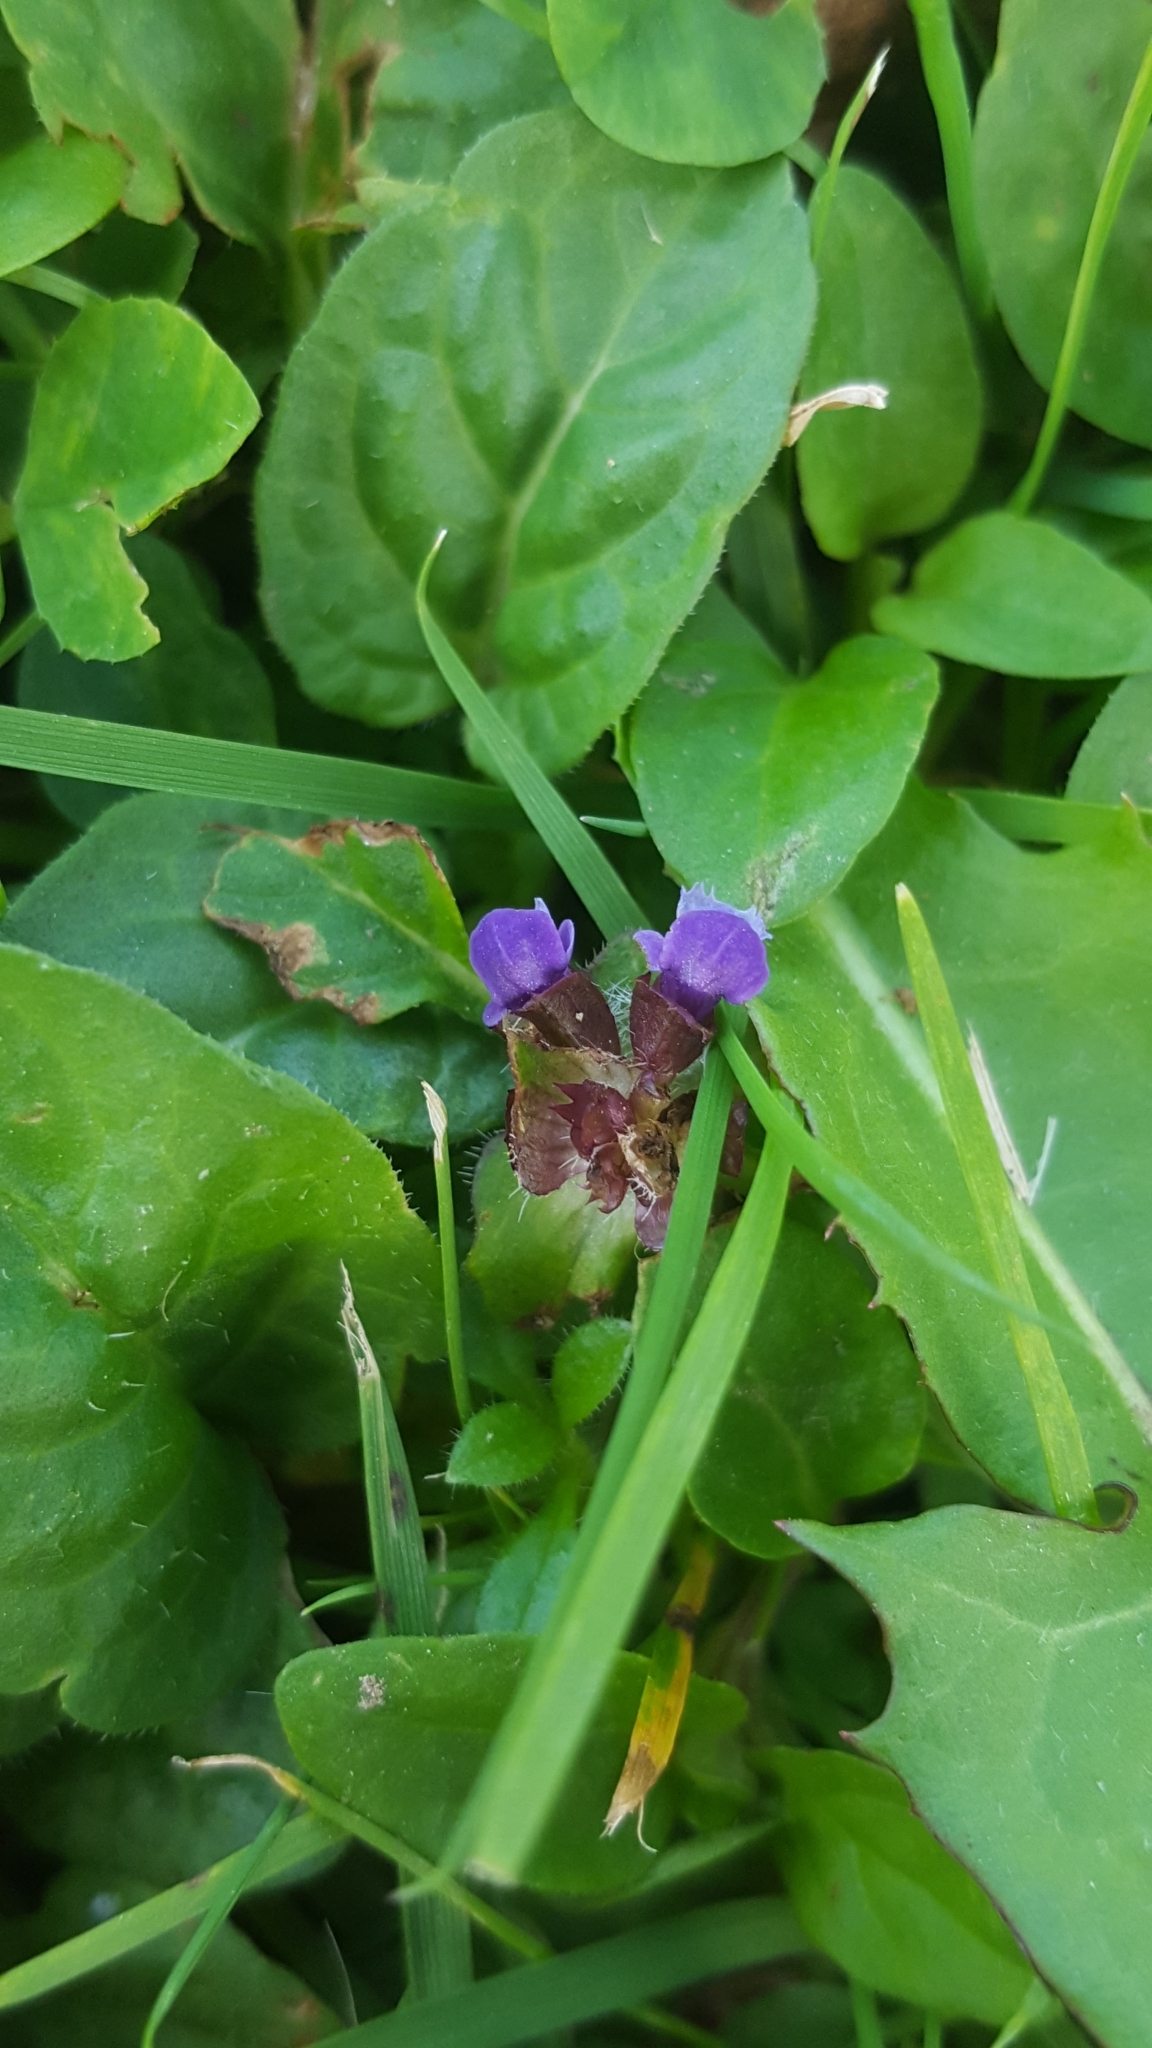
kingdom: Plantae
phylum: Tracheophyta
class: Magnoliopsida
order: Lamiales
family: Lamiaceae
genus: Prunella
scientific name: Prunella vulgaris
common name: Heal-all
